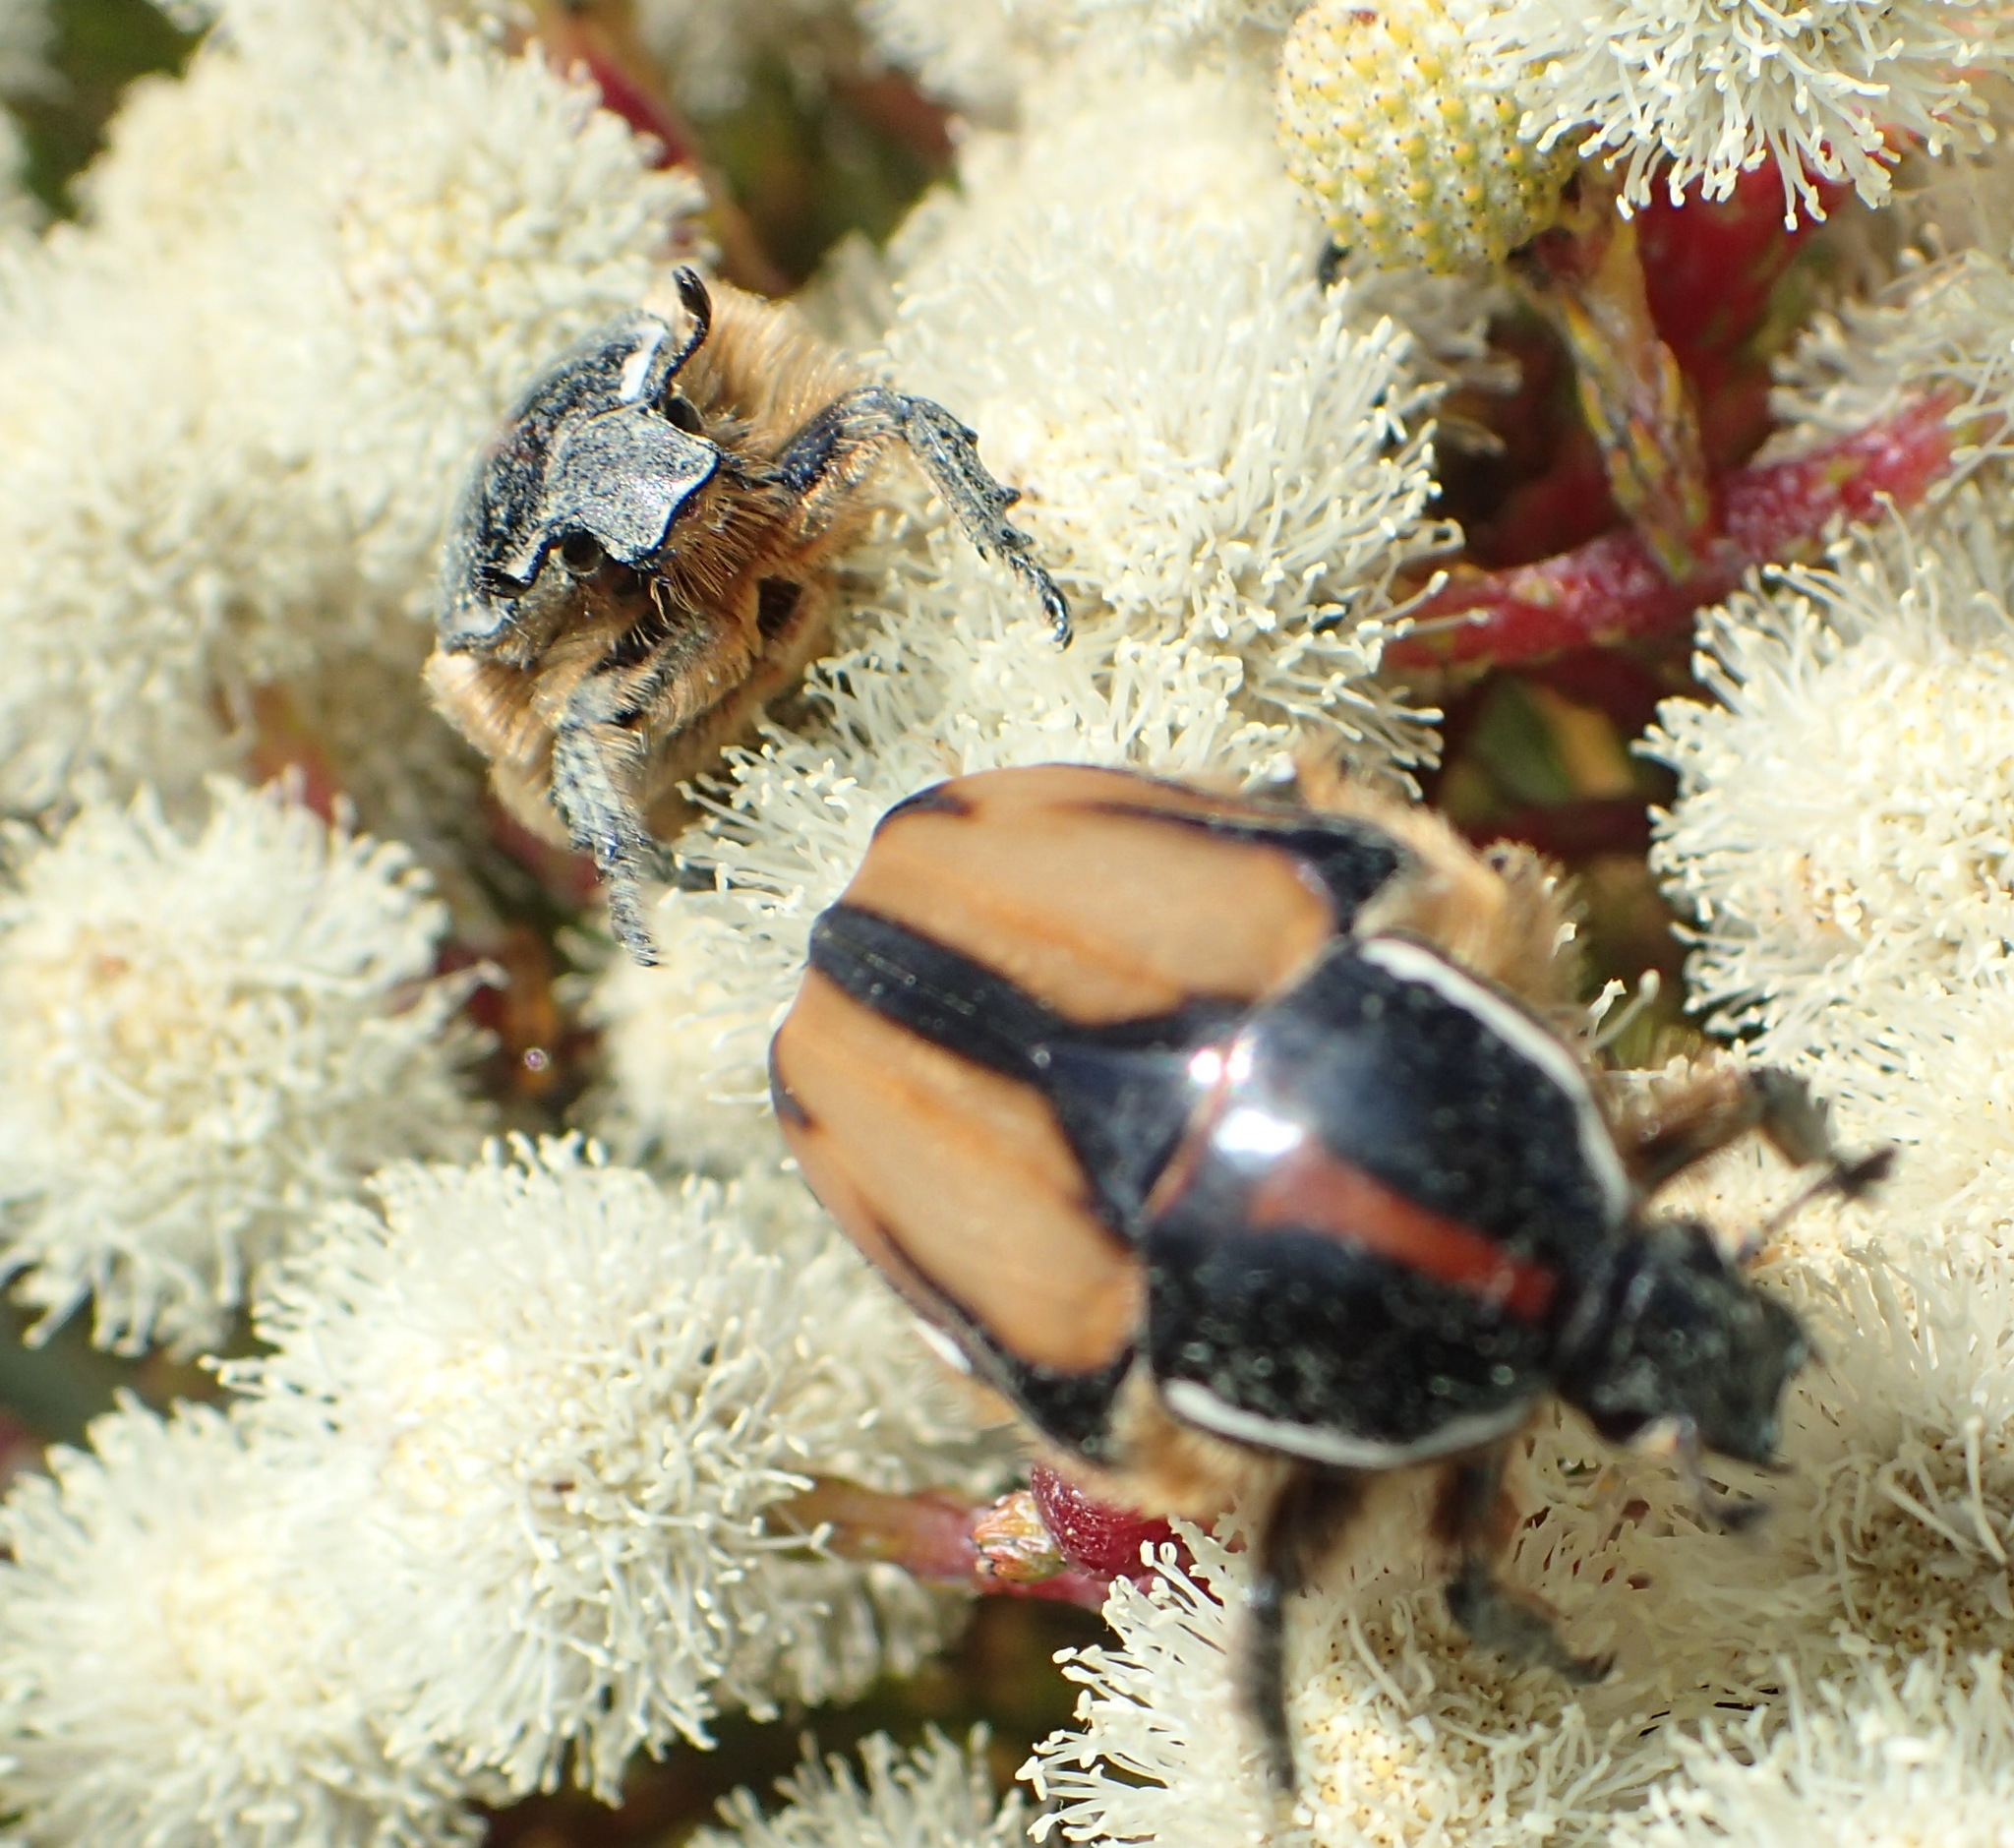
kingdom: Animalia
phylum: Arthropoda
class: Insecta
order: Coleoptera
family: Scarabaeidae
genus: Trichostetha
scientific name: Trichostetha signata
